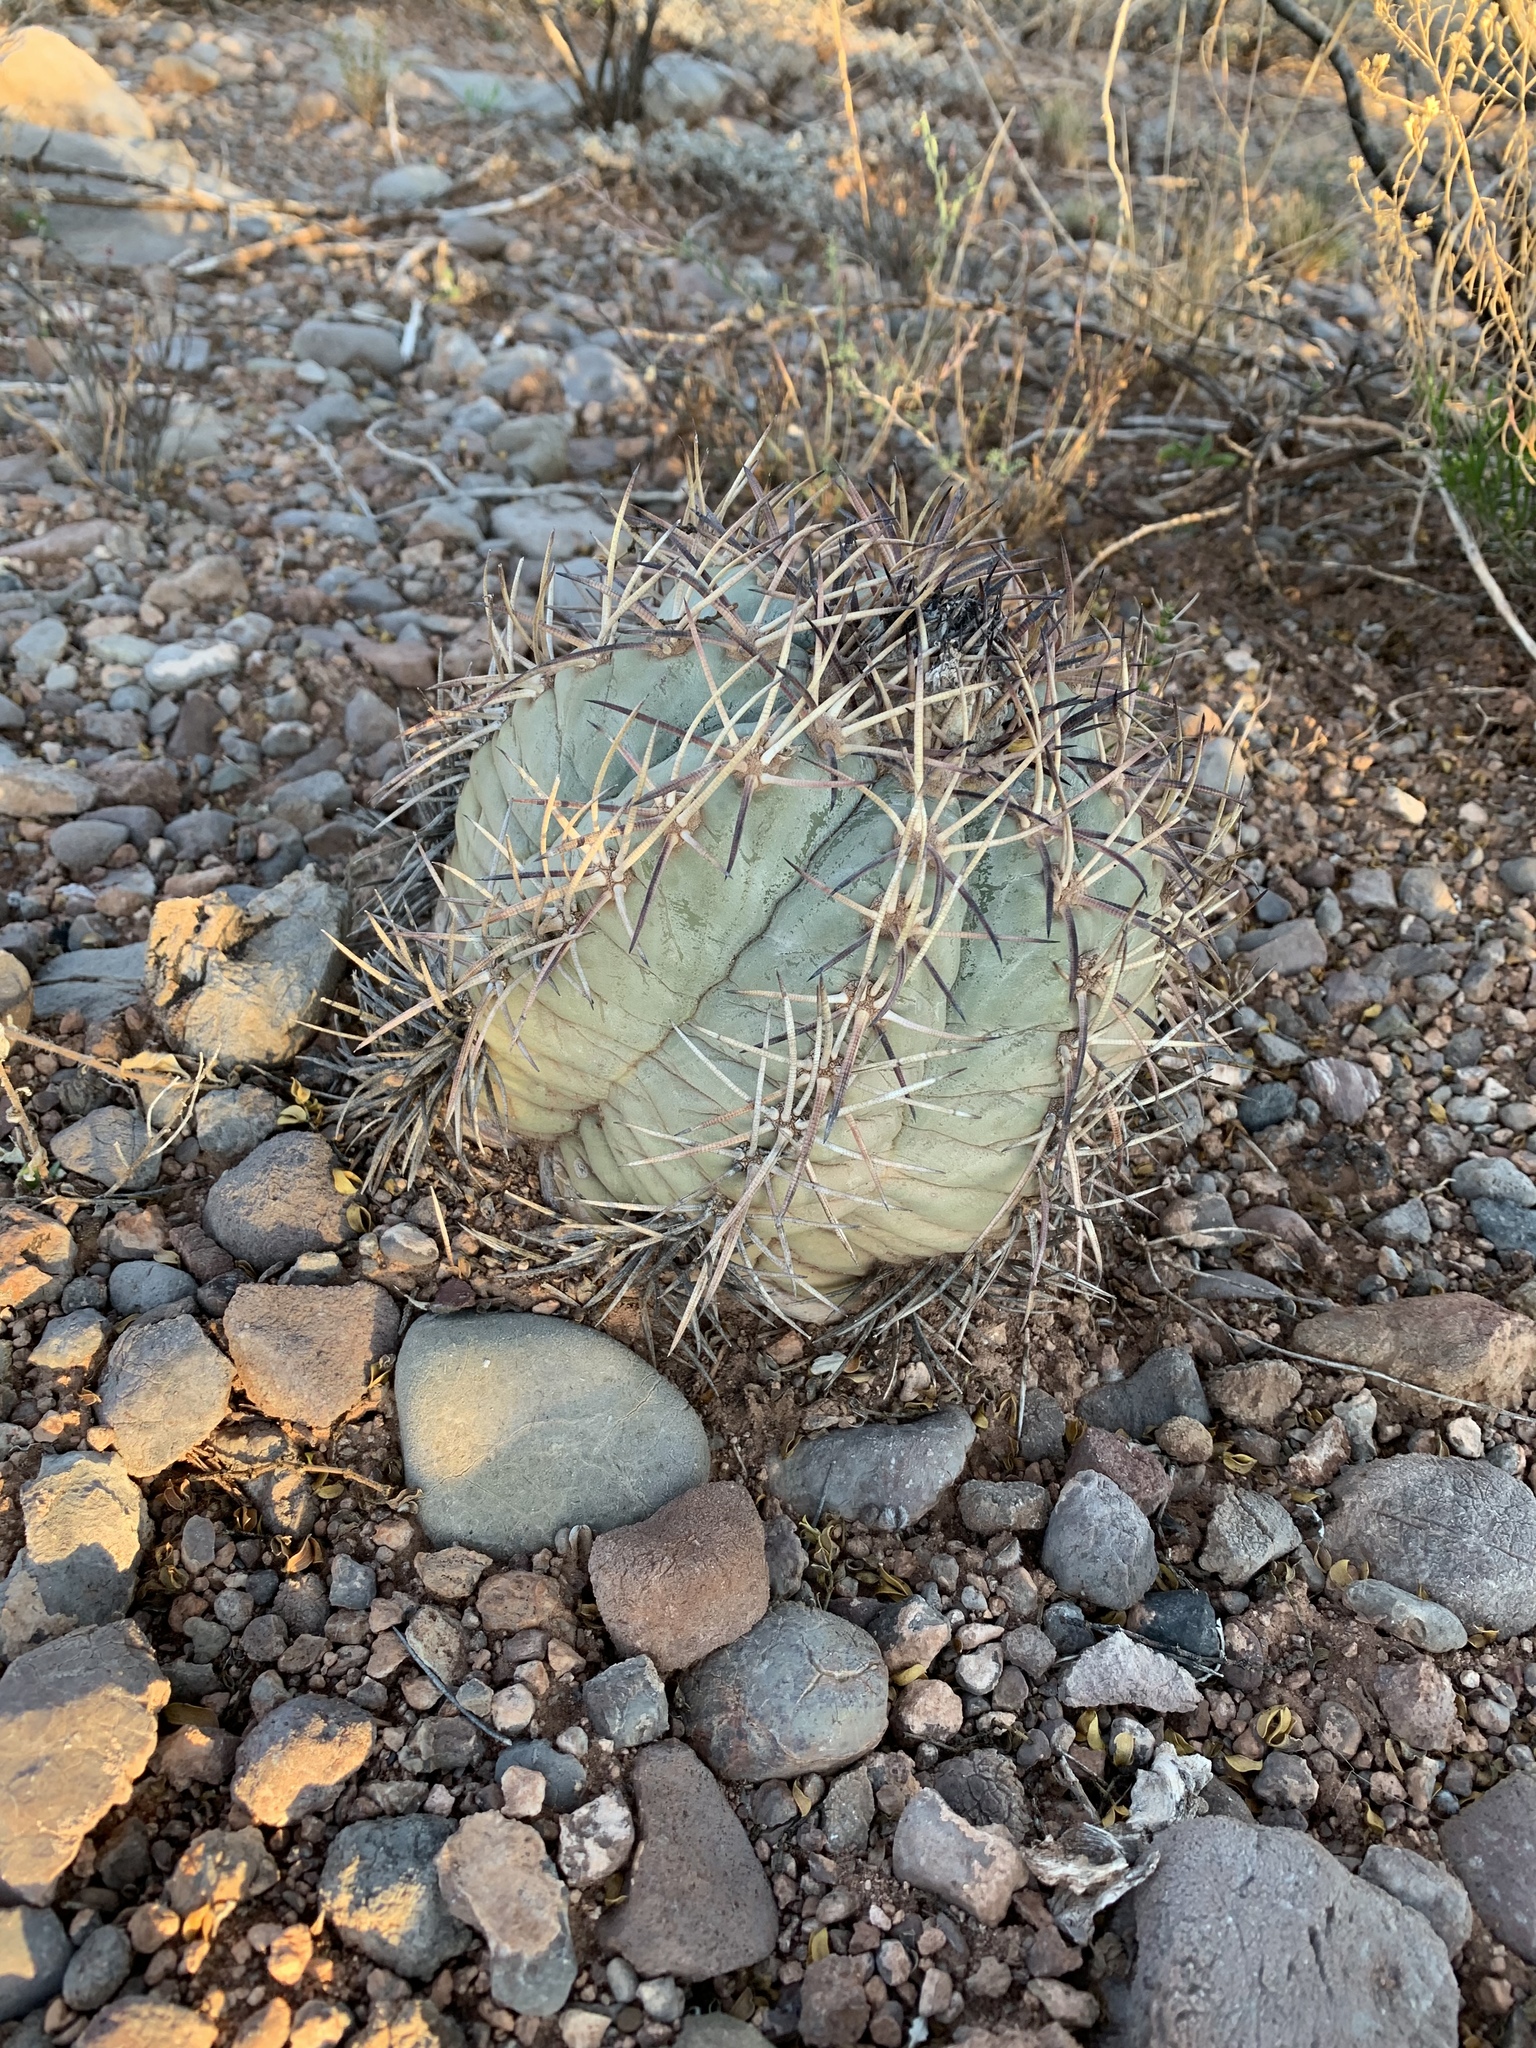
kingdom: Plantae
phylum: Tracheophyta
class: Magnoliopsida
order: Caryophyllales
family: Cactaceae
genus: Echinocactus
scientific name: Echinocactus horizonthalonius
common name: Devilshead
